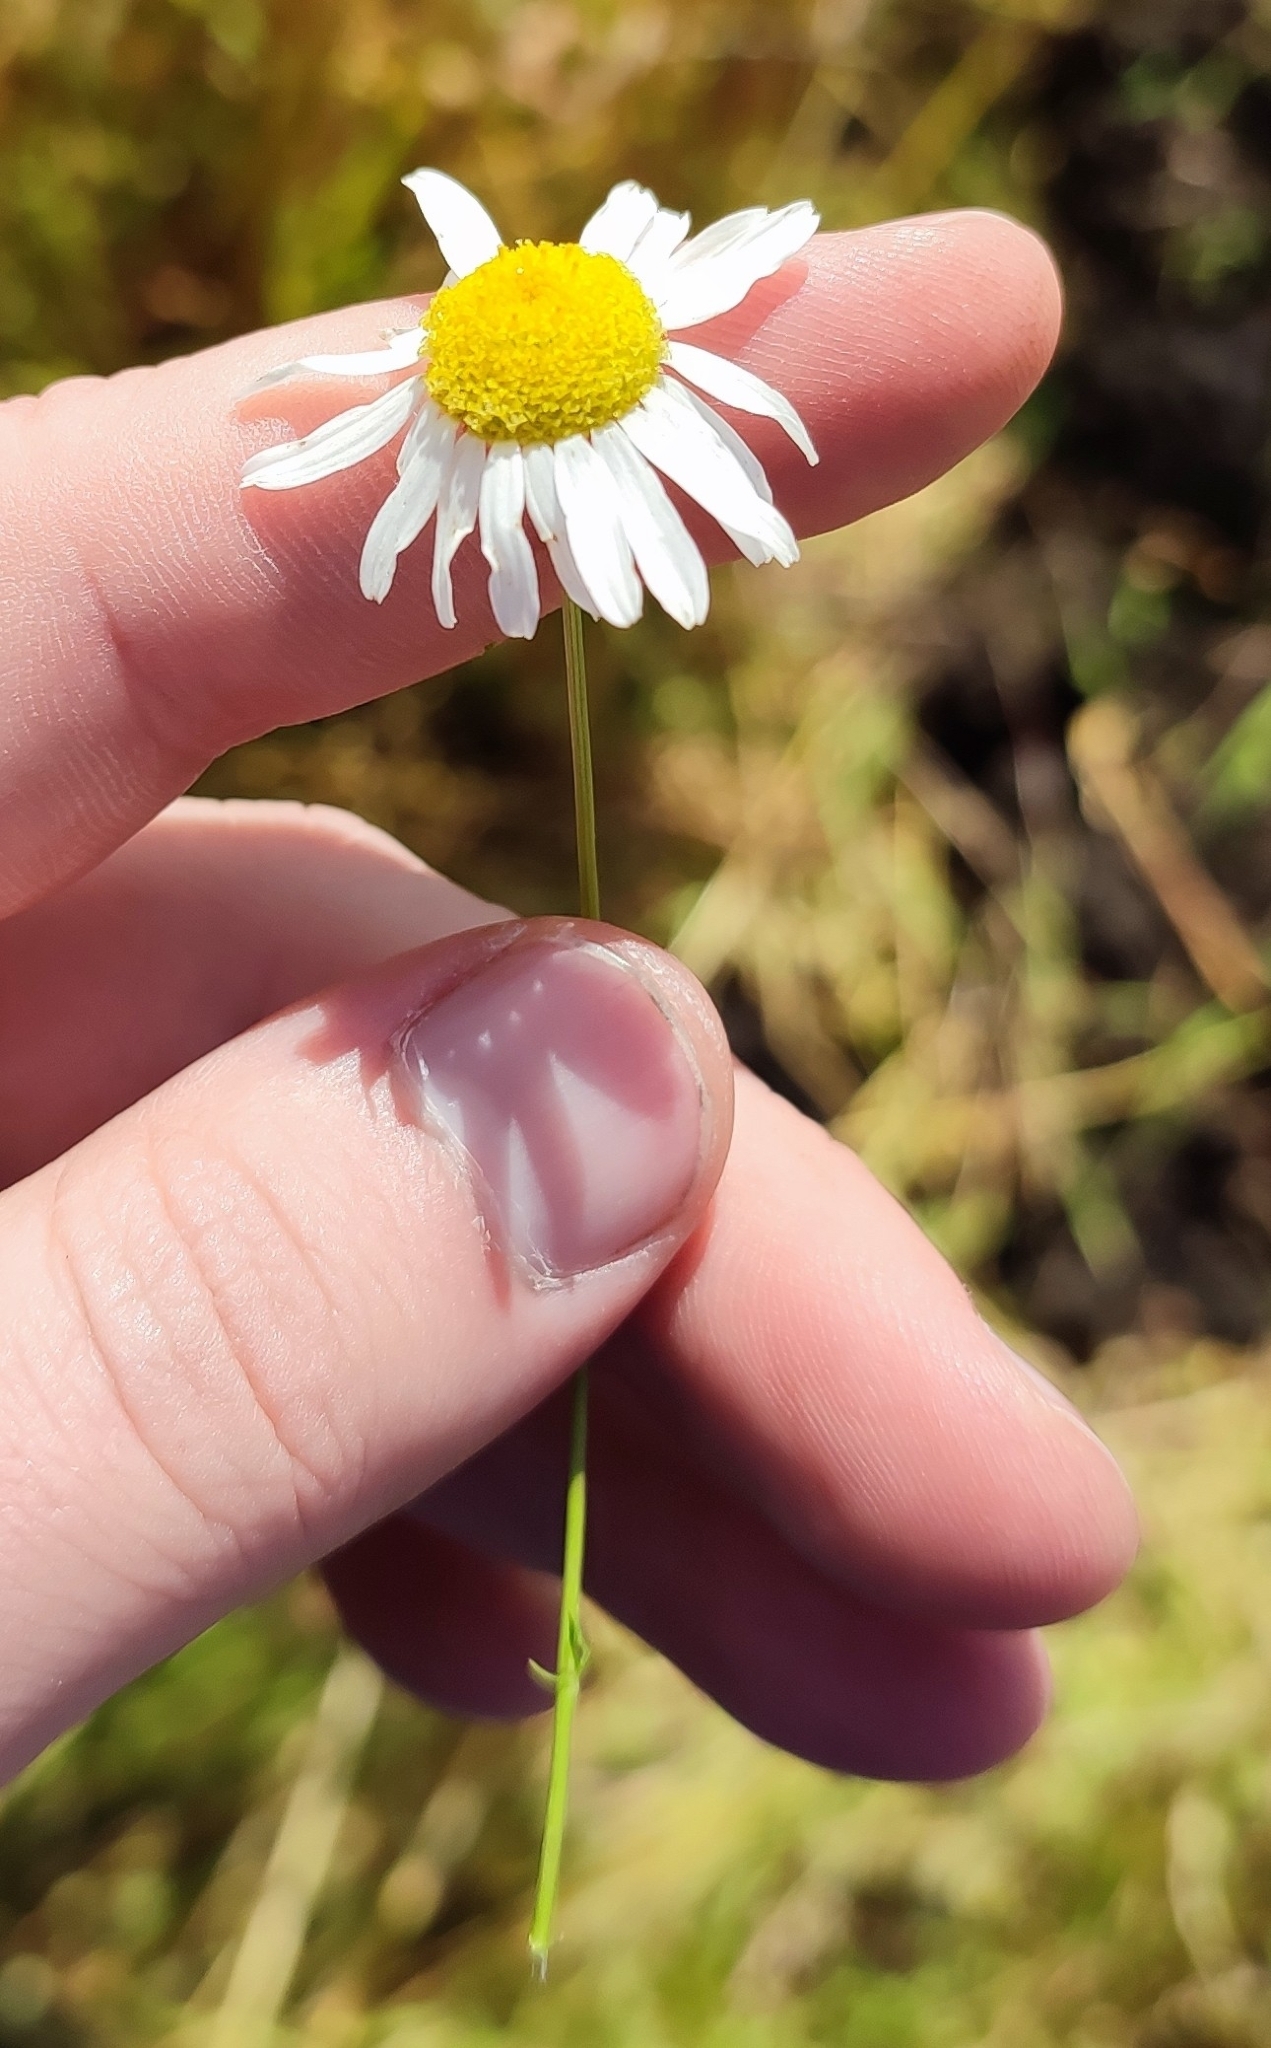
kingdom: Plantae
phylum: Tracheophyta
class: Magnoliopsida
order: Asterales
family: Asteraceae
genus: Tripleurospermum
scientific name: Tripleurospermum inodorum
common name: Scentless mayweed
